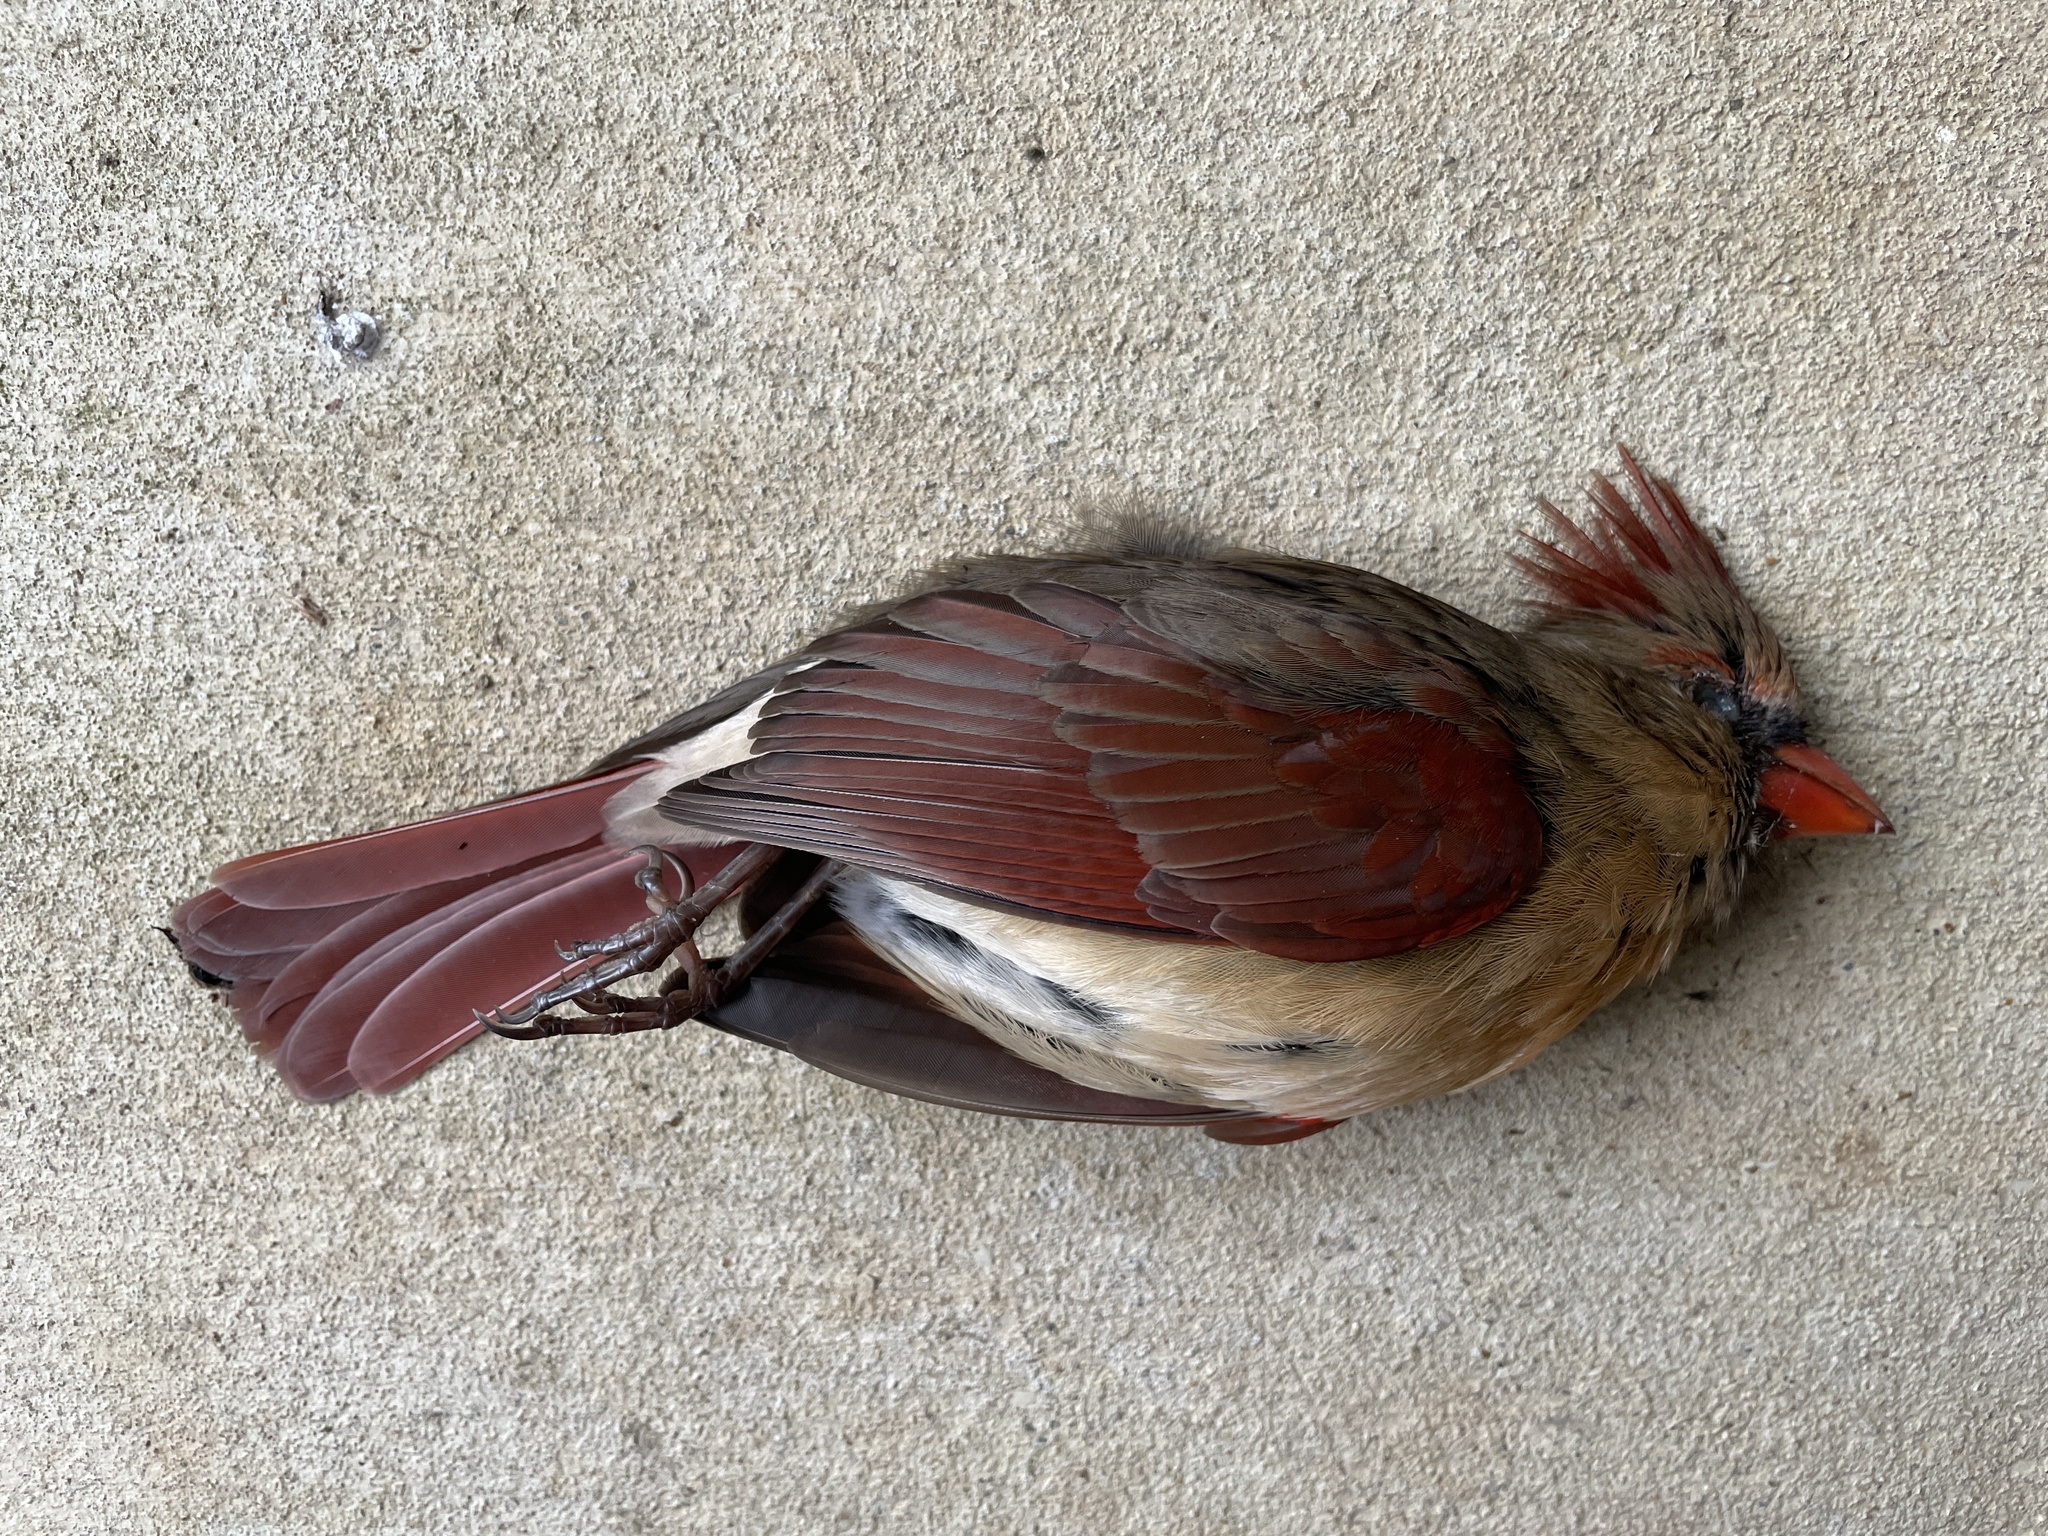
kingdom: Animalia
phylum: Chordata
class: Aves
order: Passeriformes
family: Cardinalidae
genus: Cardinalis
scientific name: Cardinalis cardinalis
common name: Northern cardinal
